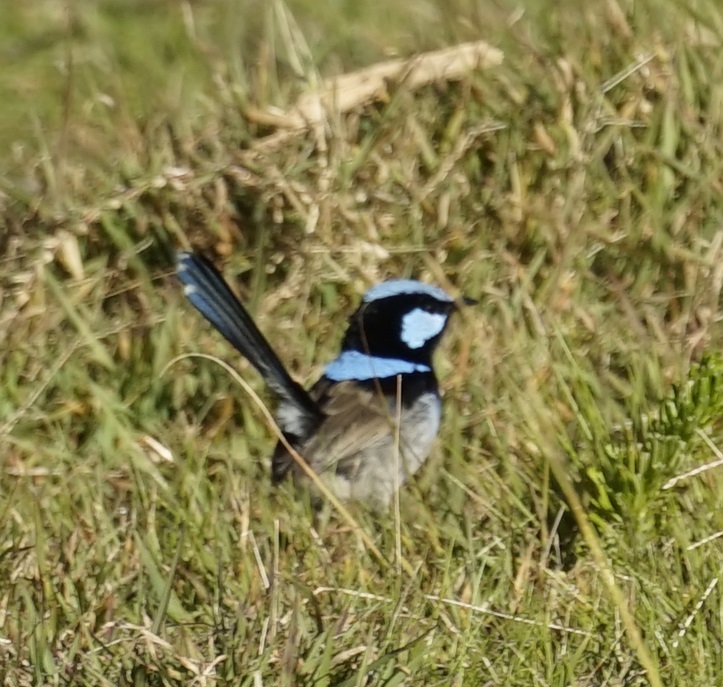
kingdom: Animalia
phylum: Chordata
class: Aves
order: Passeriformes
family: Maluridae
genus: Malurus
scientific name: Malurus cyaneus
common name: Superb fairywren
